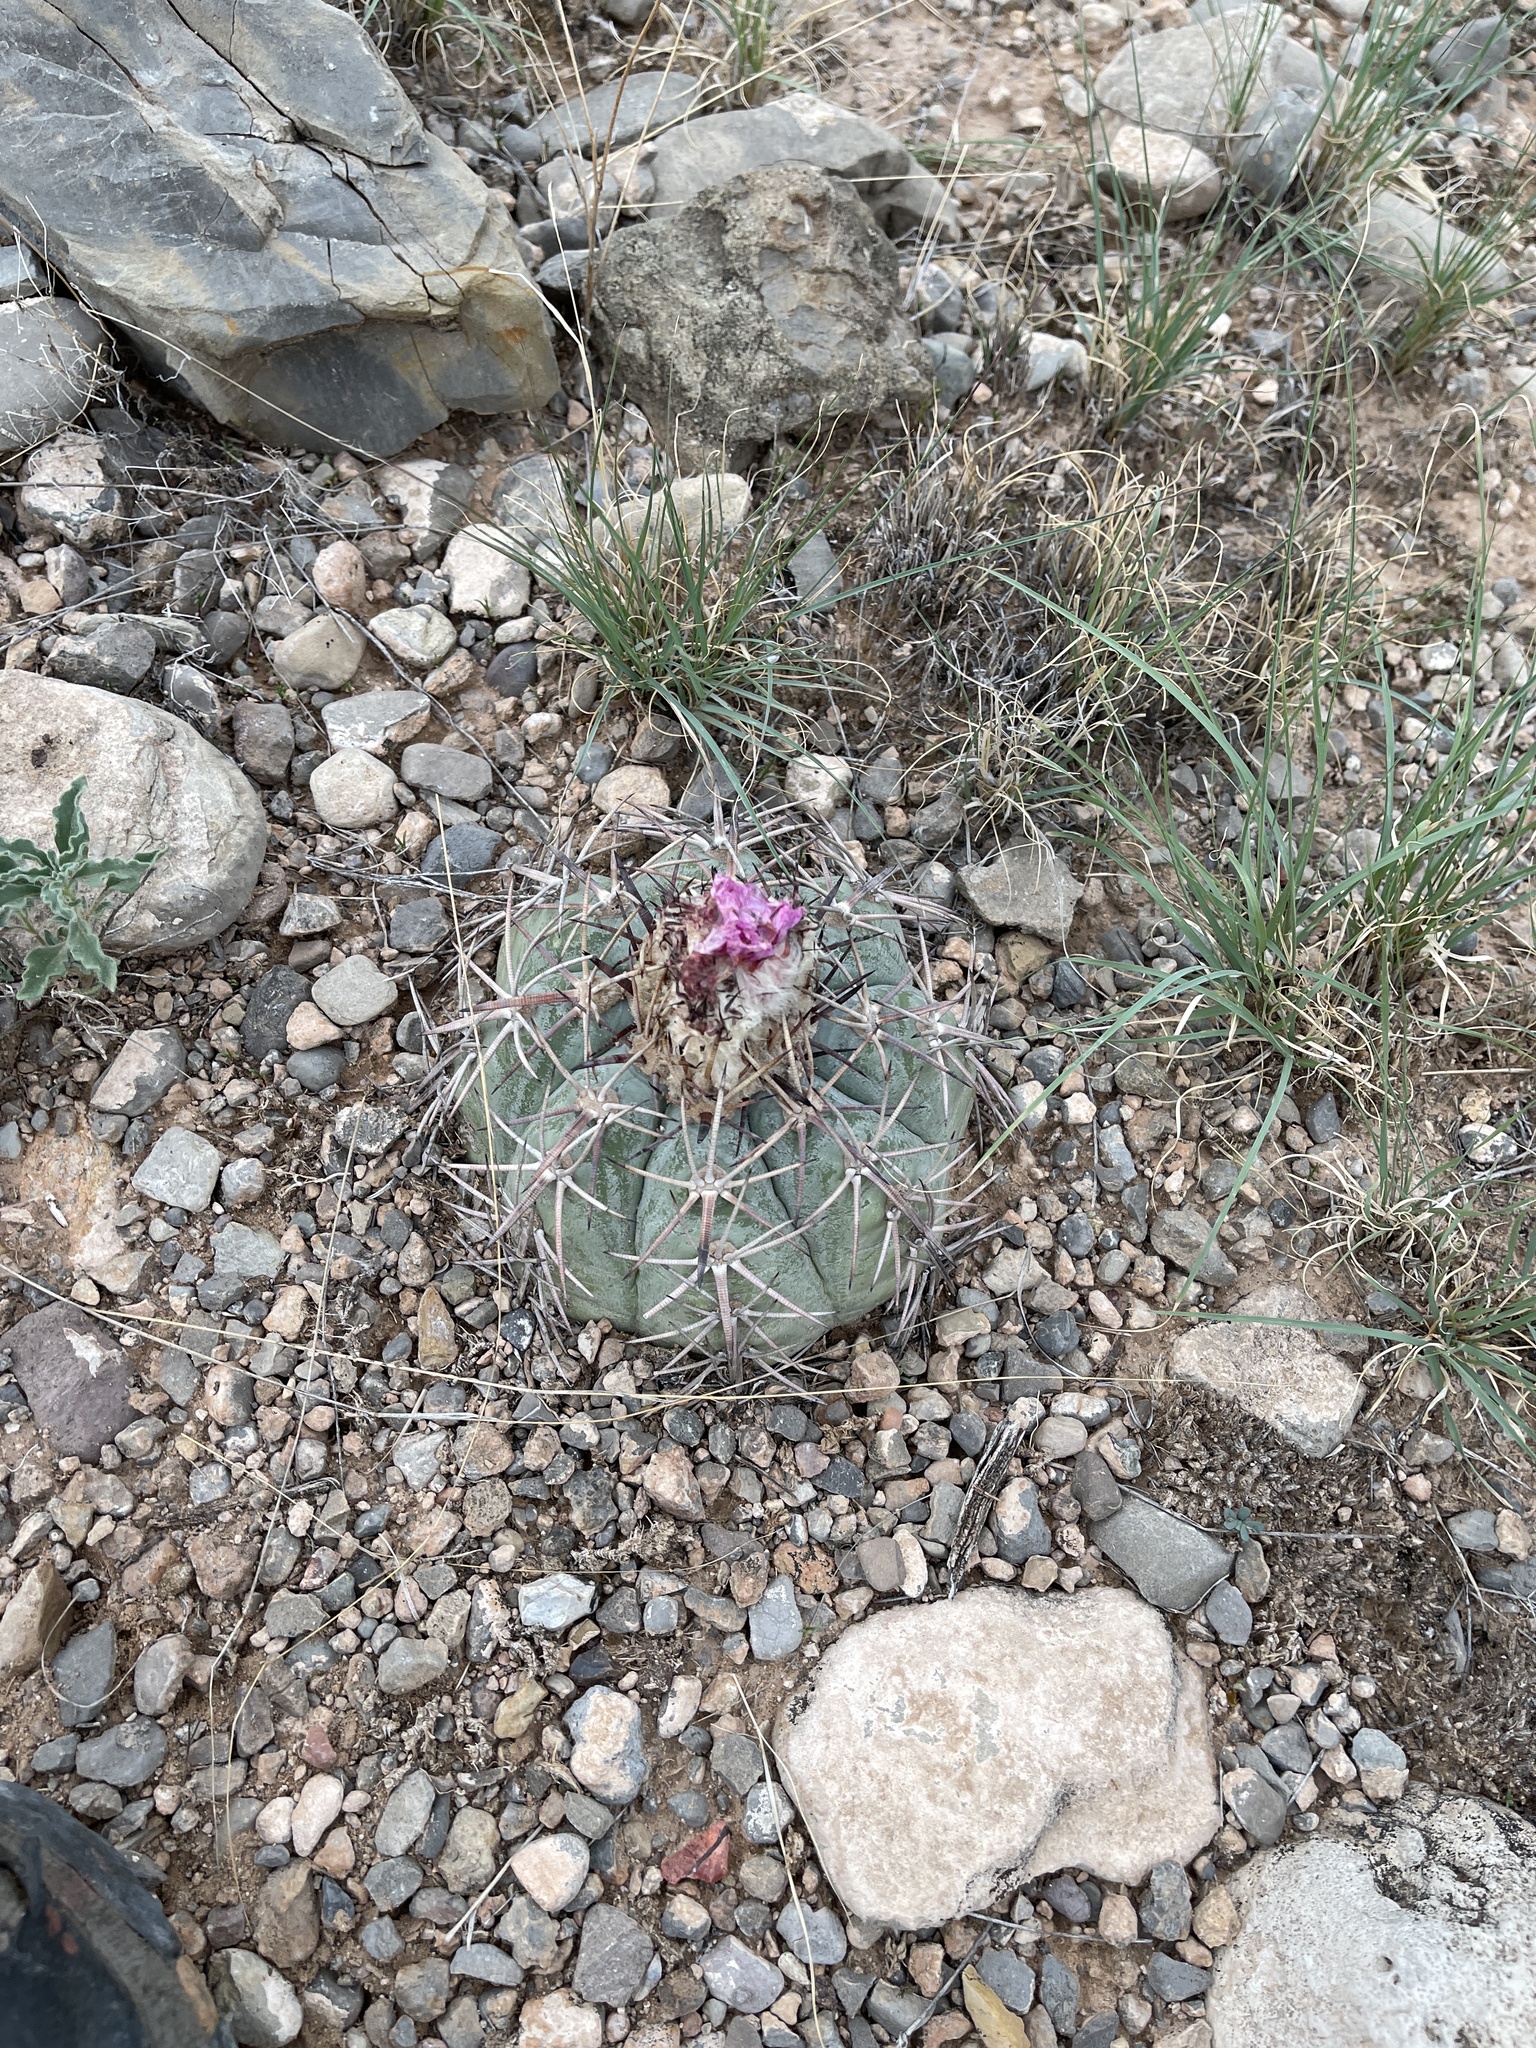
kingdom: Plantae
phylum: Tracheophyta
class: Magnoliopsida
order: Caryophyllales
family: Cactaceae
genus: Echinocactus
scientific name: Echinocactus horizonthalonius
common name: Devilshead
